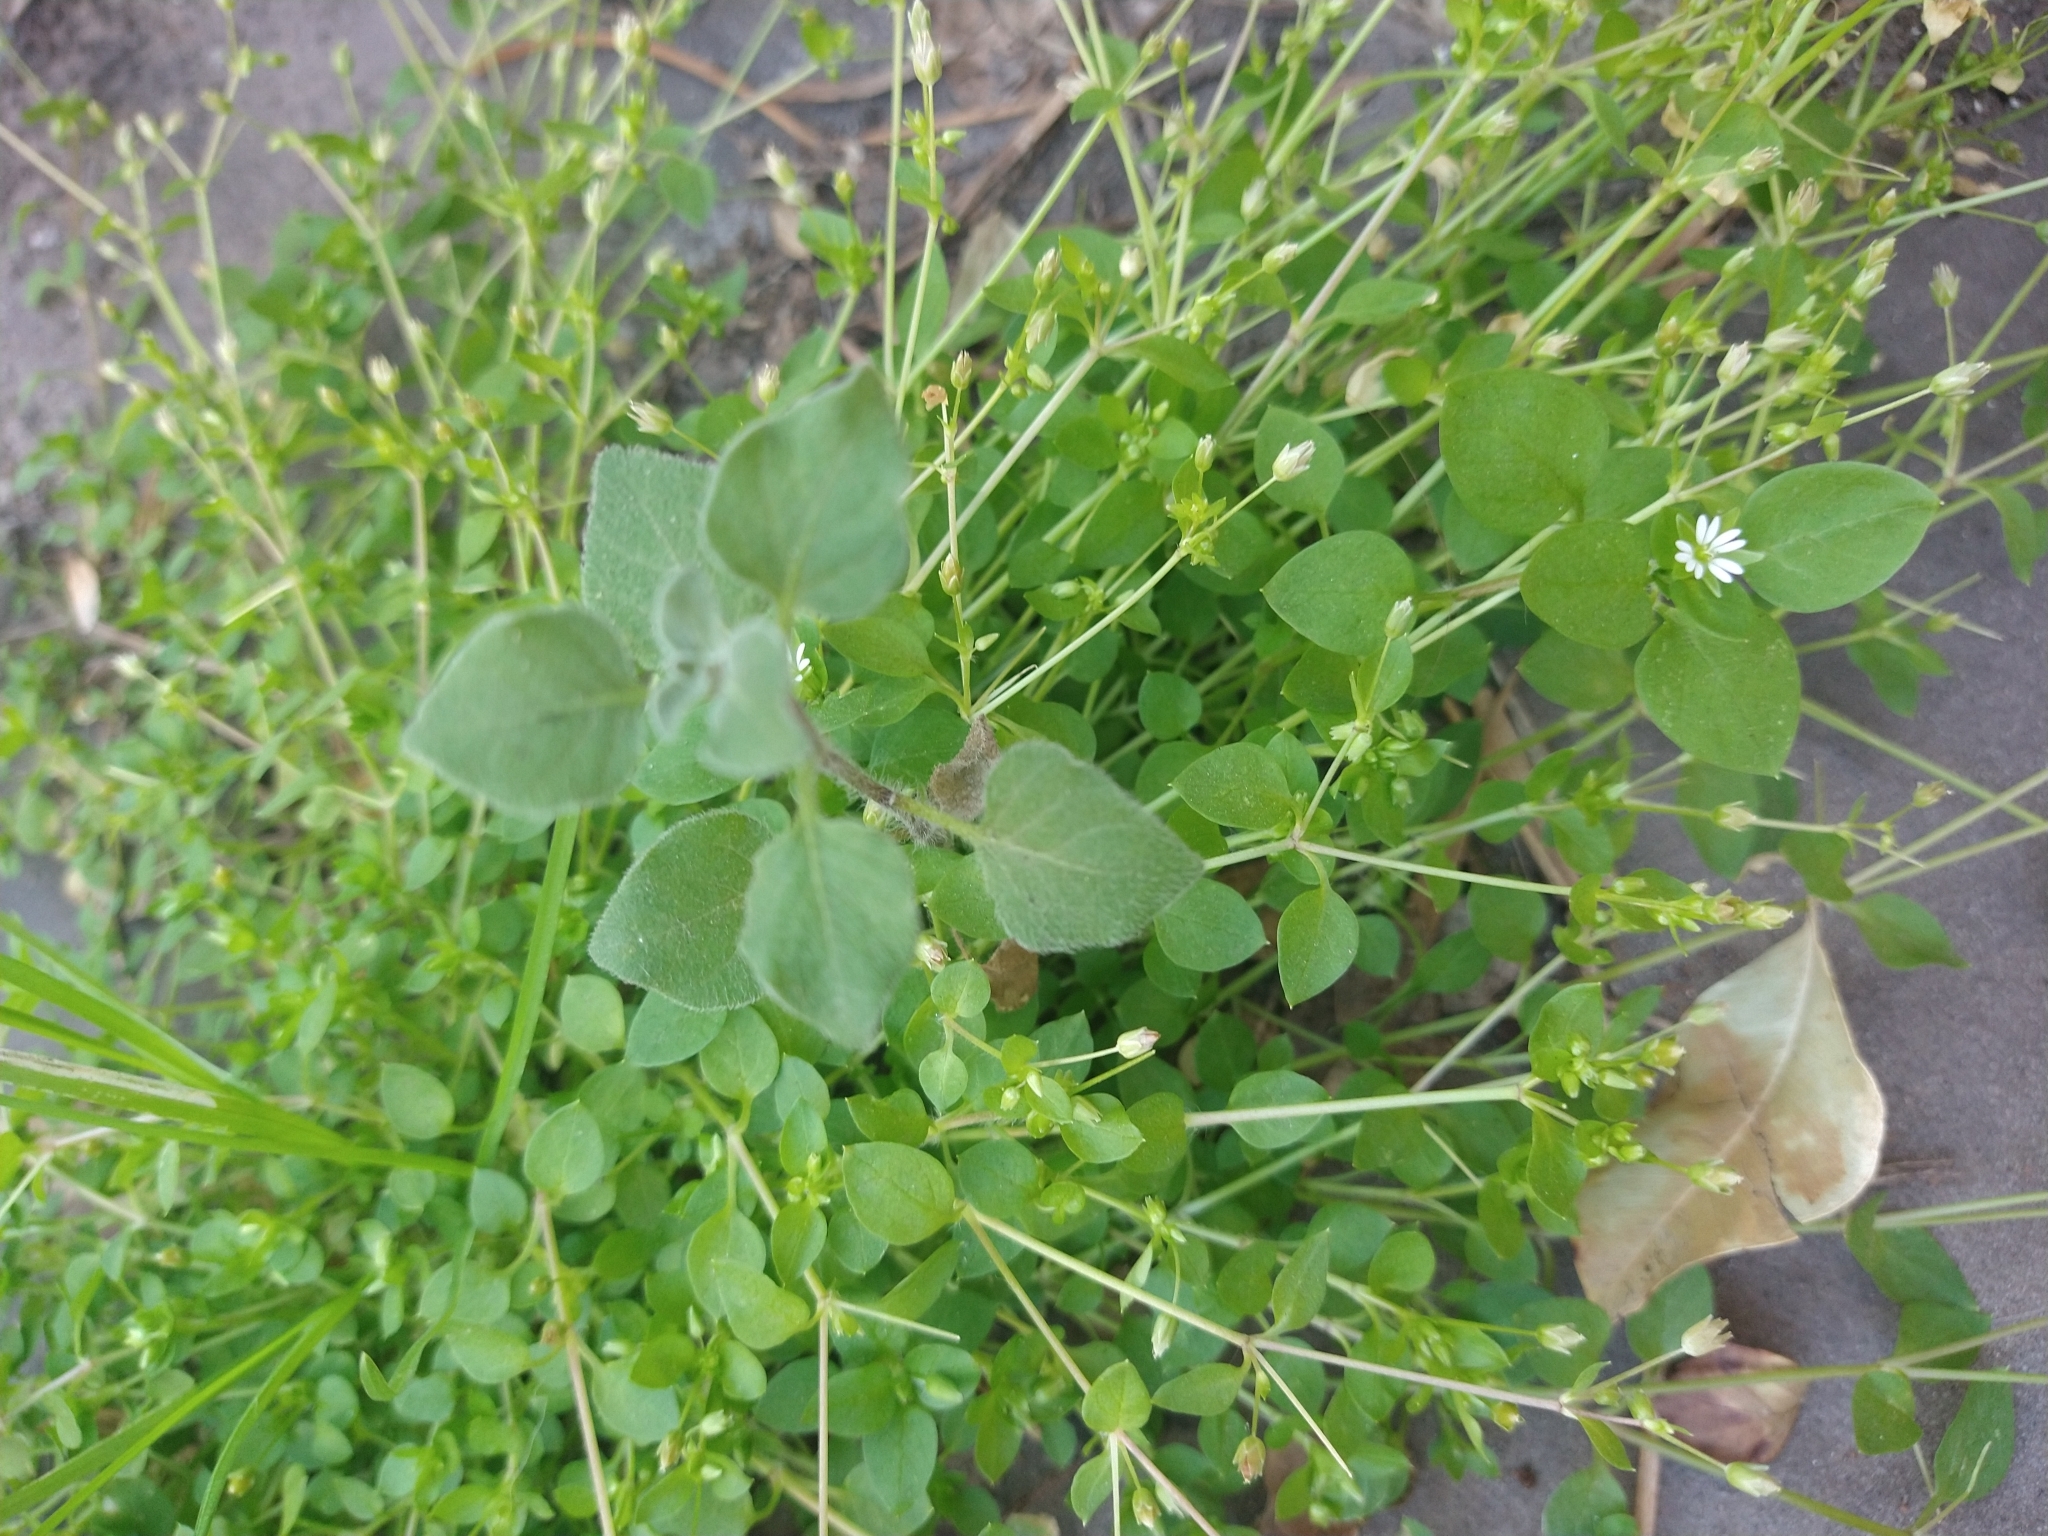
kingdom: Plantae
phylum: Tracheophyta
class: Magnoliopsida
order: Caryophyllales
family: Caryophyllaceae
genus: Stellaria
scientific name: Stellaria media
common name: Common chickweed
